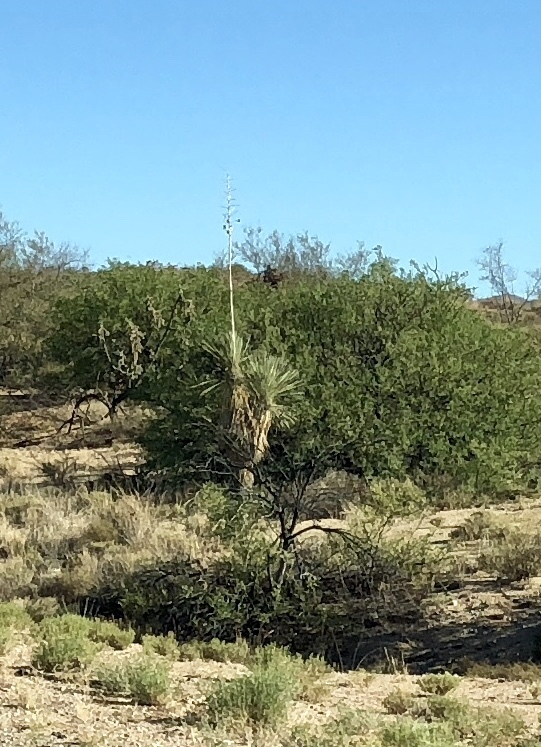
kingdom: Plantae
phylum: Tracheophyta
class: Liliopsida
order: Asparagales
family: Asparagaceae
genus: Yucca
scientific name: Yucca elata
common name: Palmella
